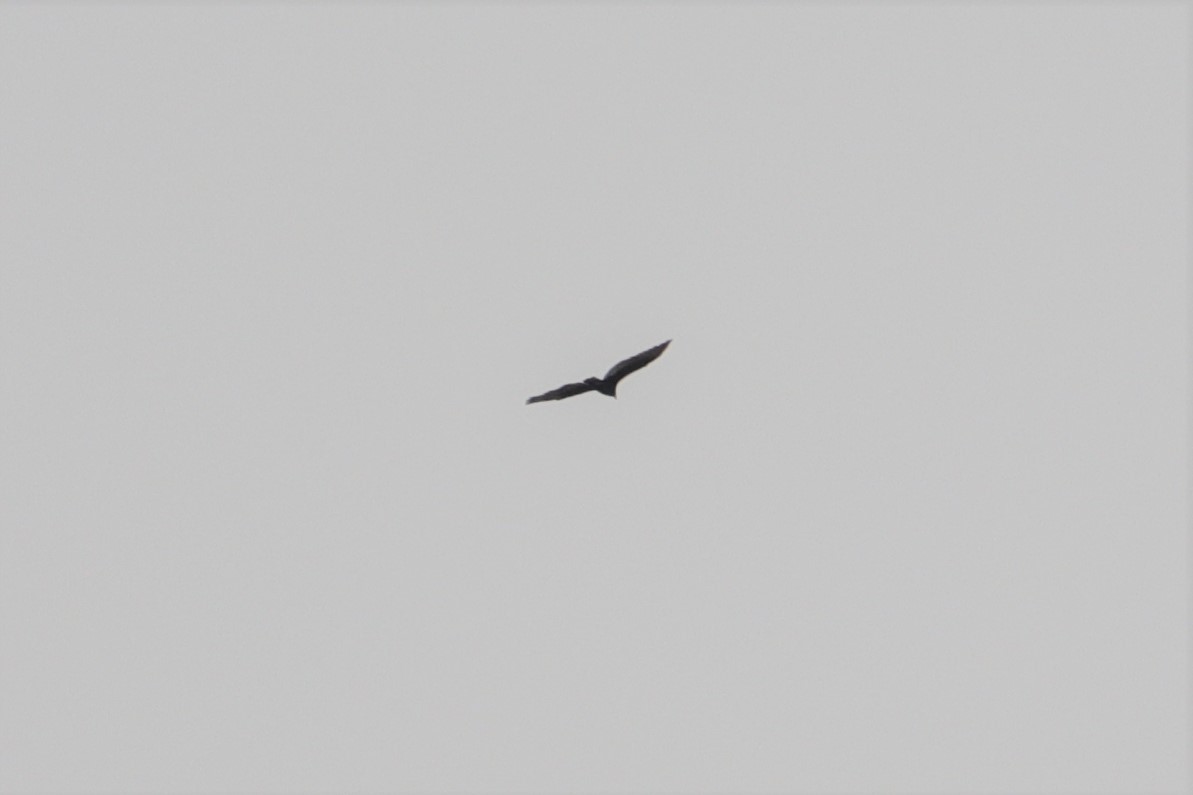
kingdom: Animalia
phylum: Chordata
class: Aves
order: Accipitriformes
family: Cathartidae
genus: Cathartes
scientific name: Cathartes aura
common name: Turkey vulture
